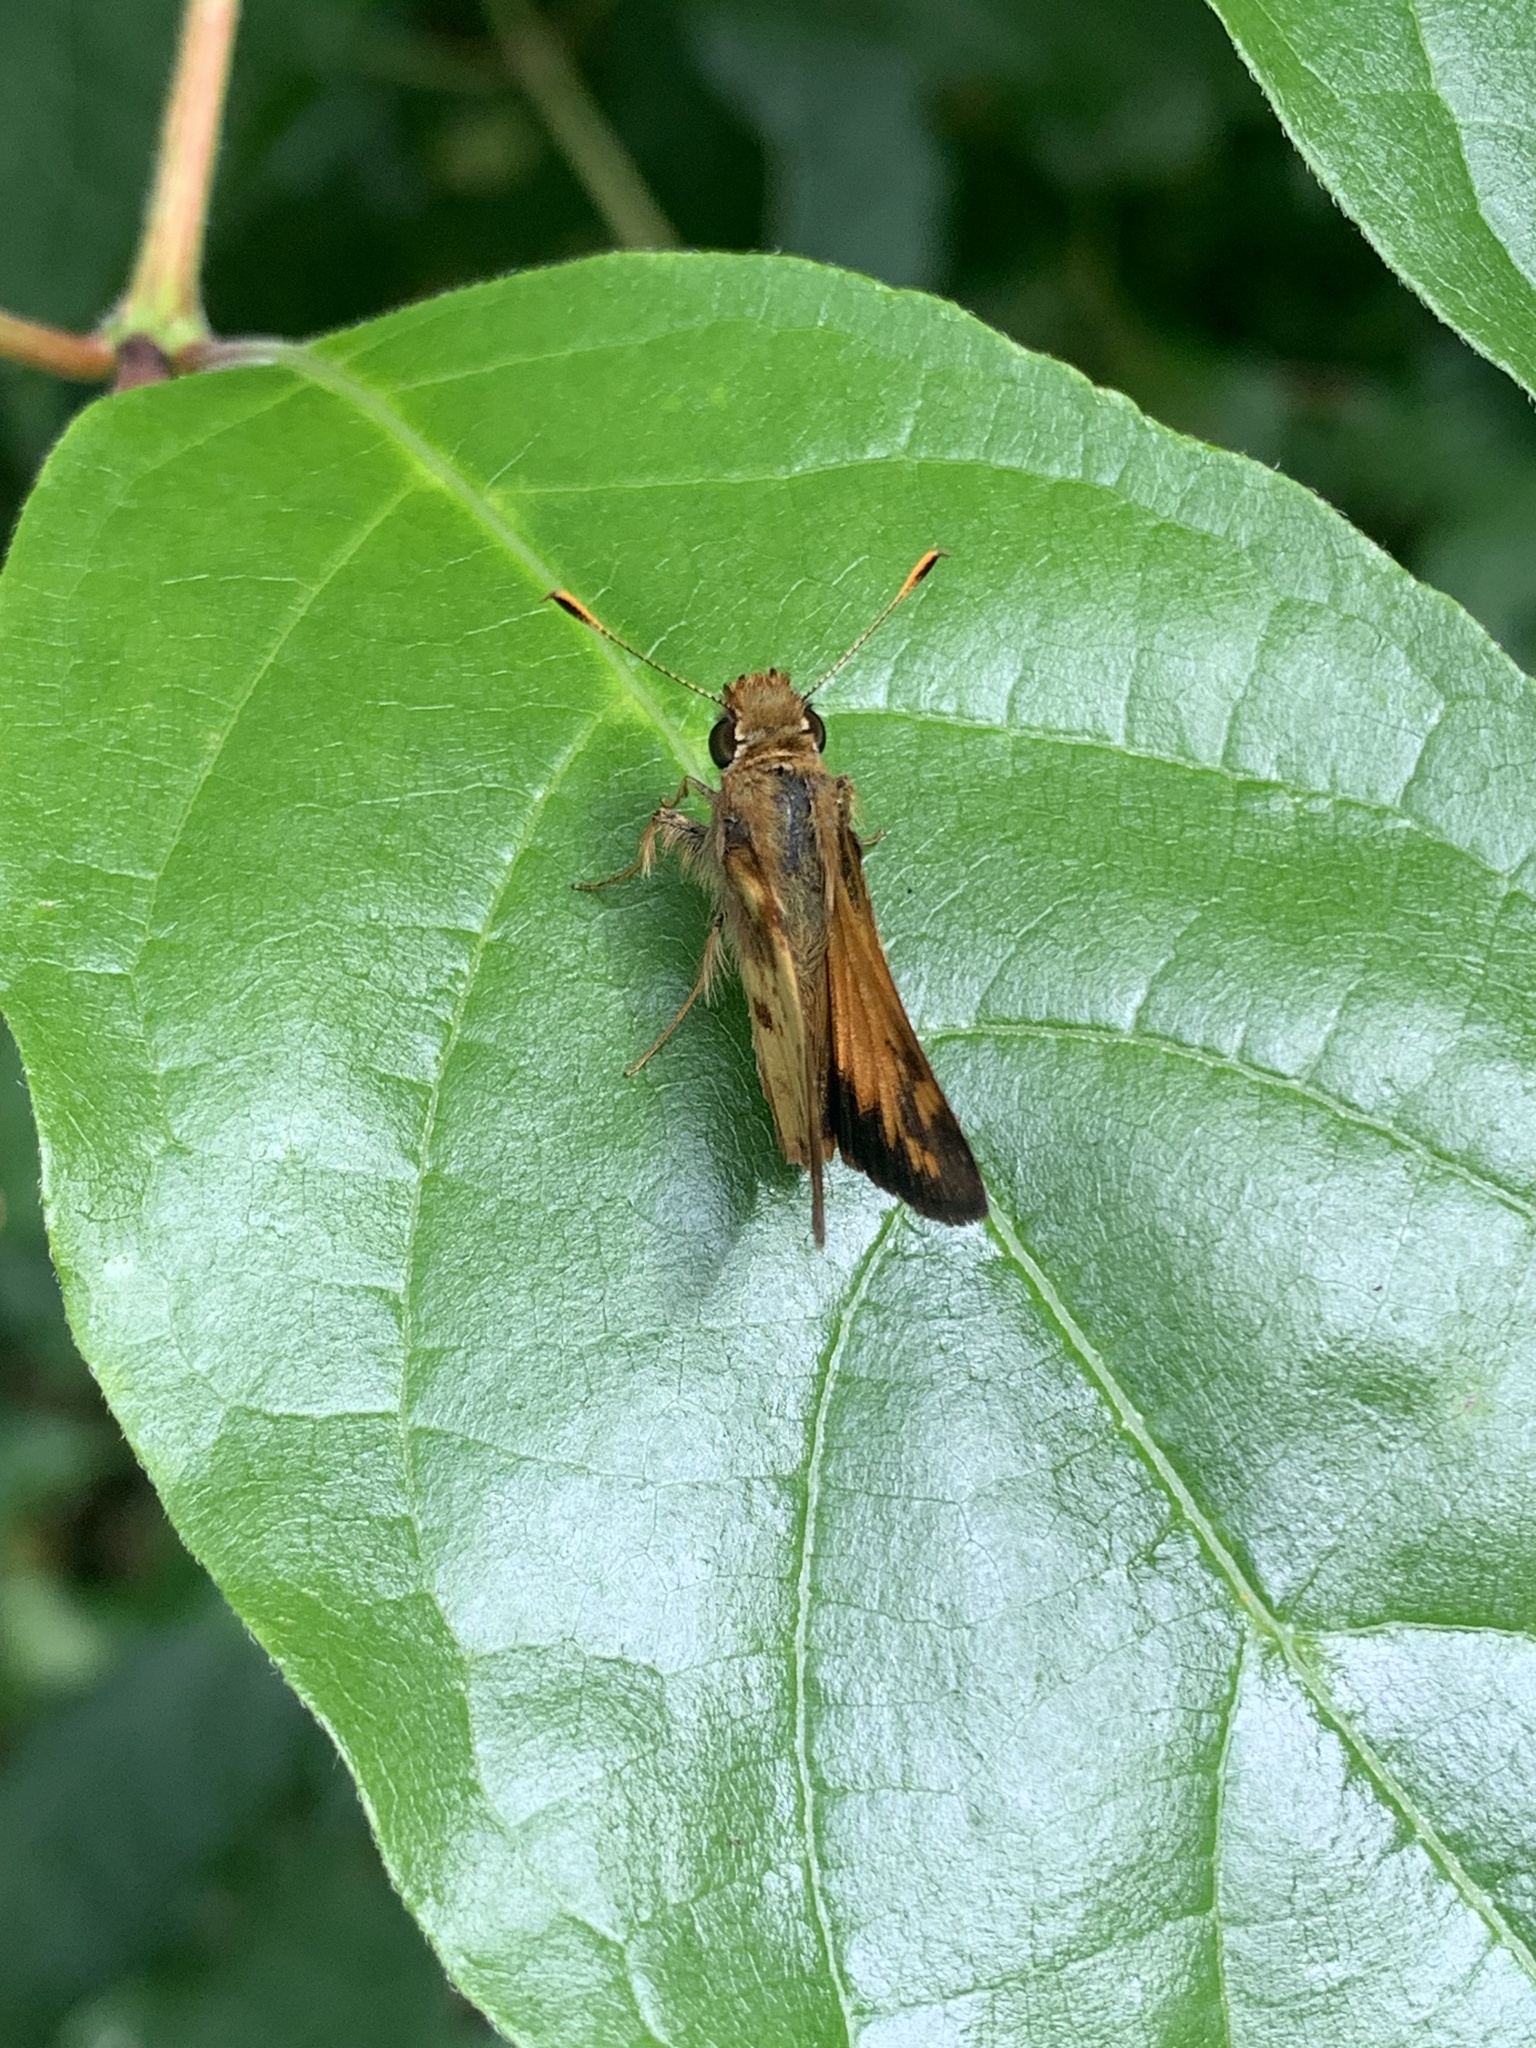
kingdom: Animalia
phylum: Arthropoda
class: Insecta
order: Lepidoptera
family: Hesperiidae
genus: Lon
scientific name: Lon zabulon
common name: Zabulon skipper
